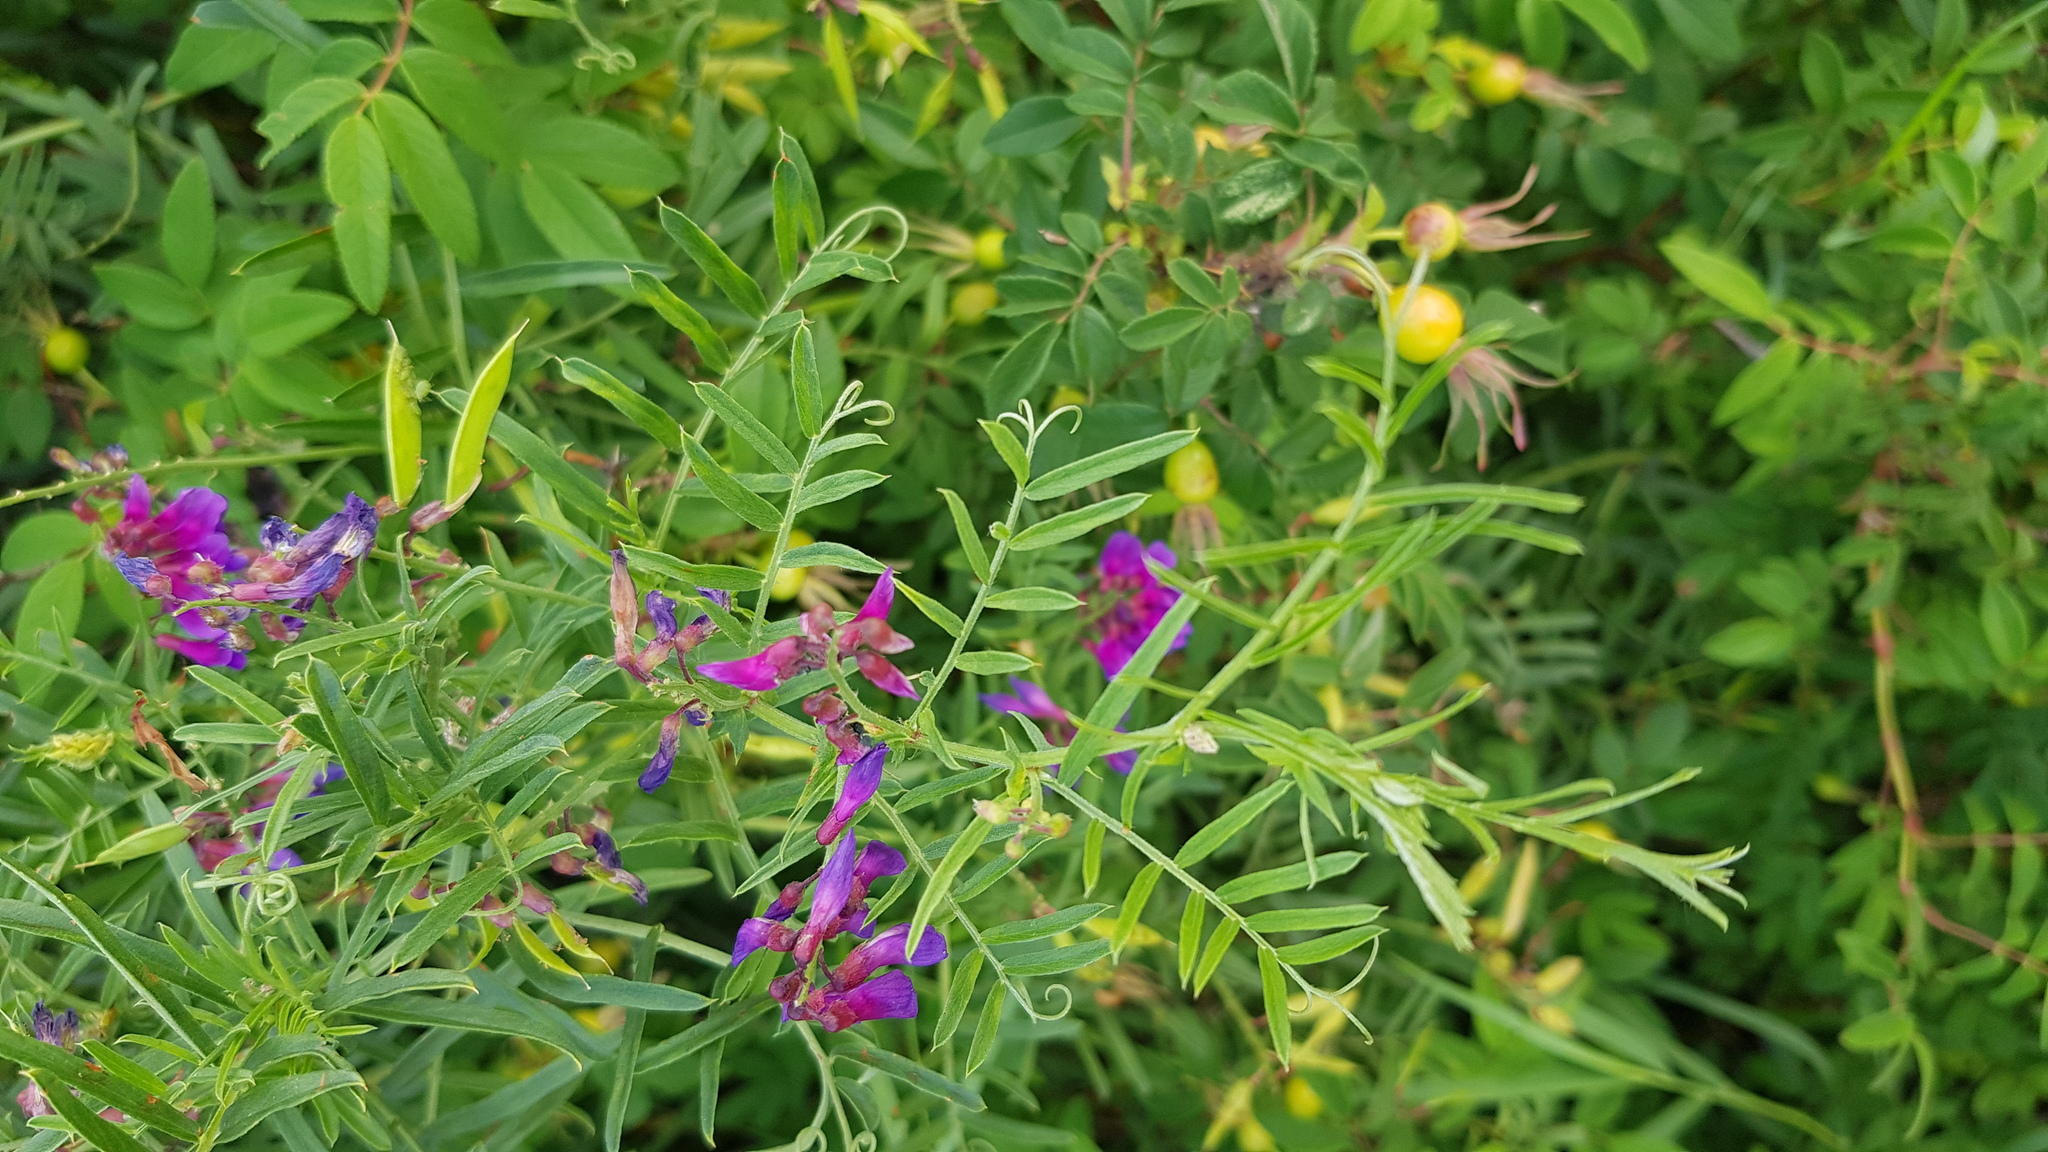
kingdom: Plantae
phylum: Tracheophyta
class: Magnoliopsida
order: Fabales
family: Fabaceae
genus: Vicia
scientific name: Vicia amoena
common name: Cheder ebs
